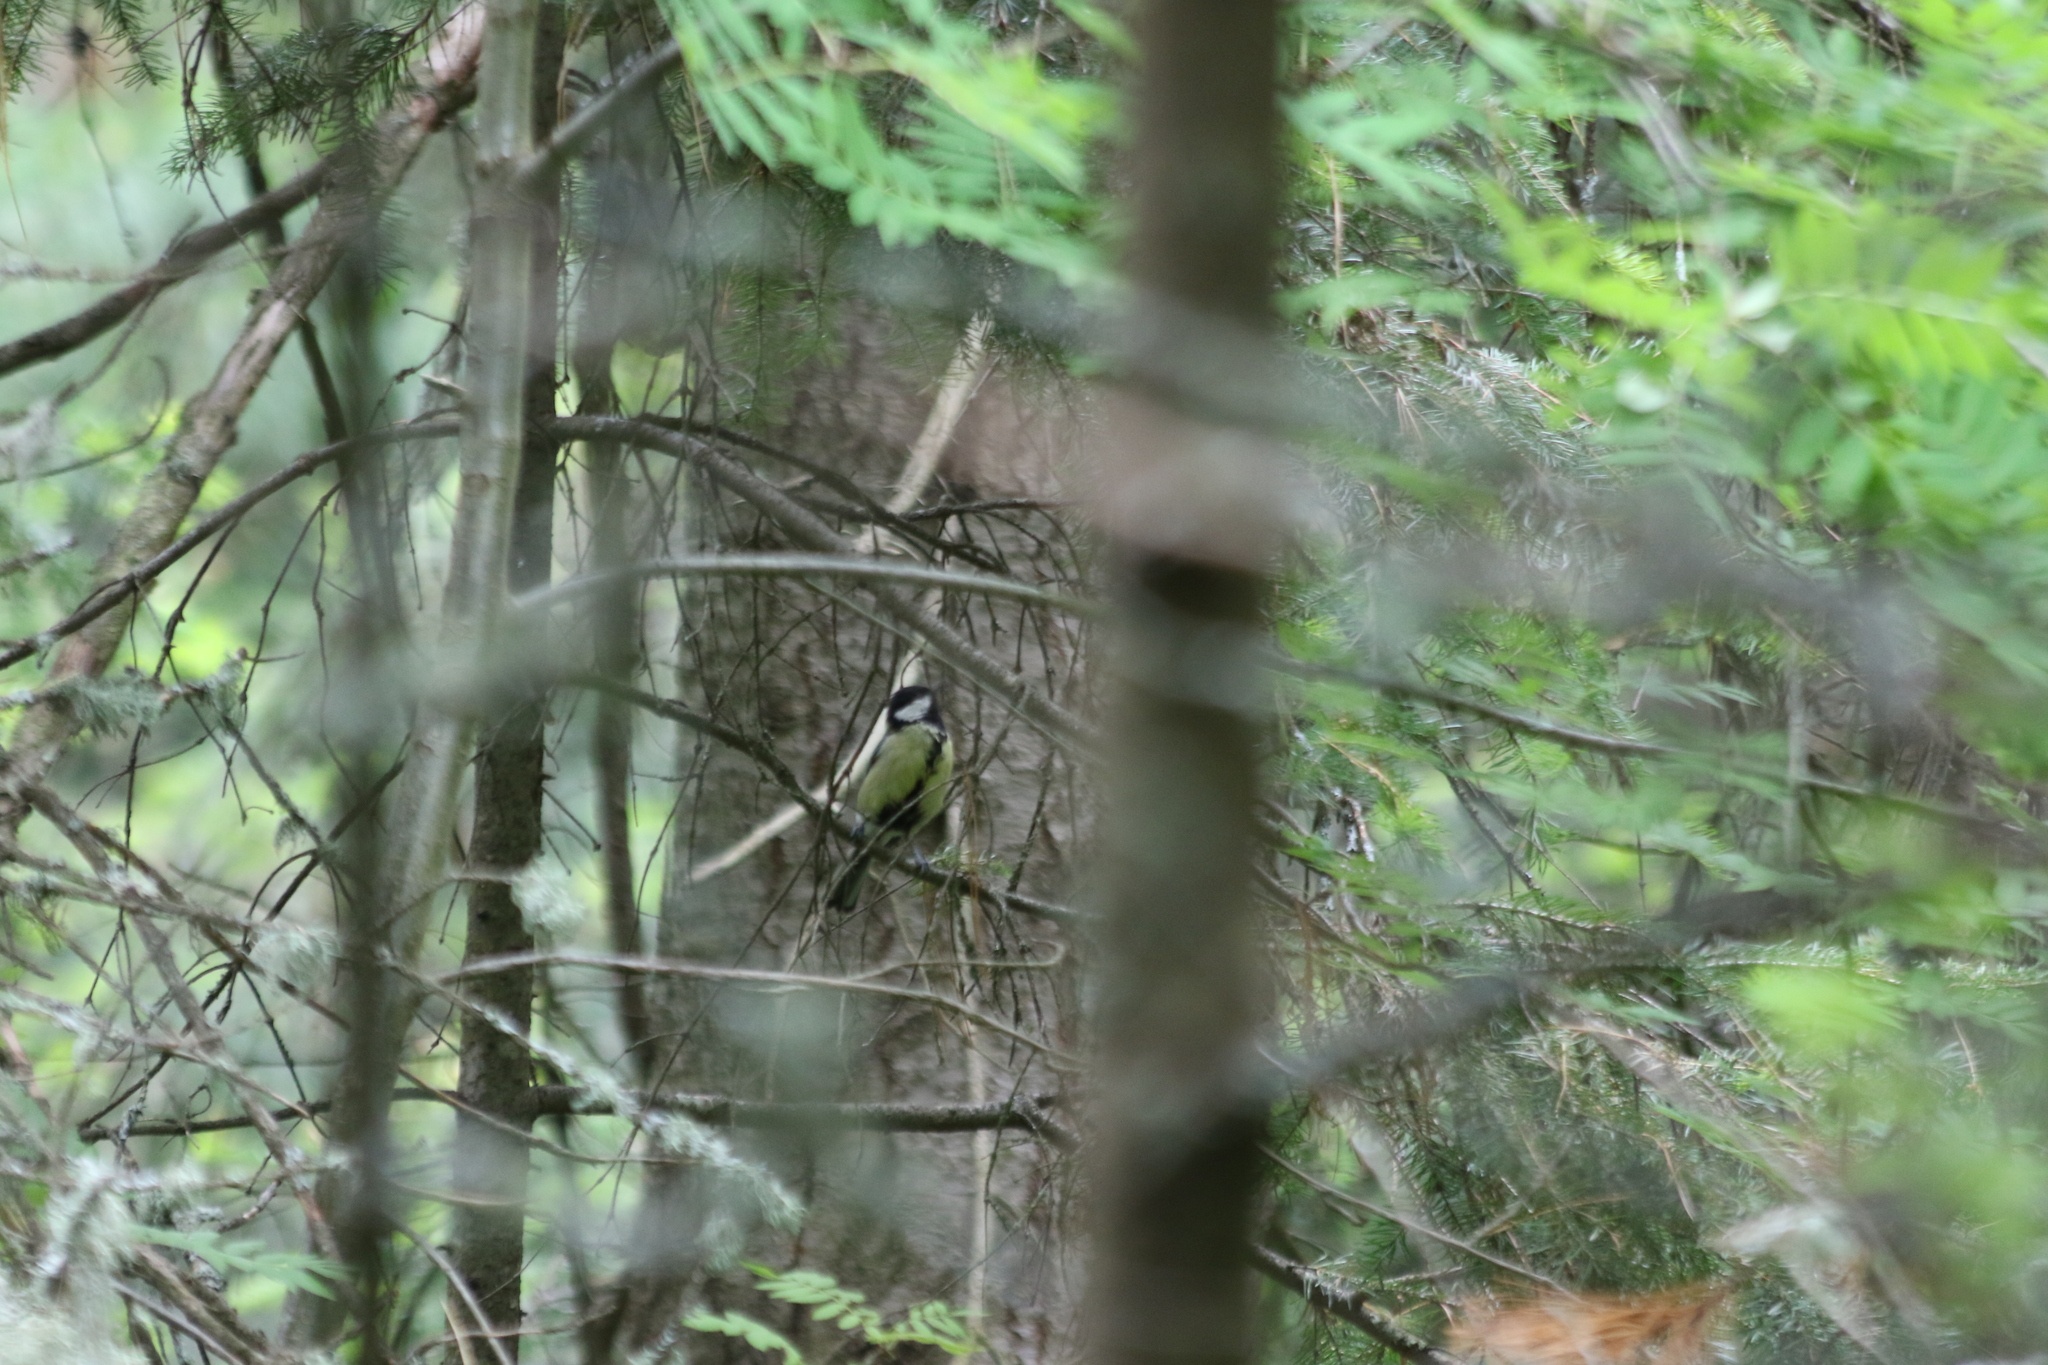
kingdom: Animalia
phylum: Chordata
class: Aves
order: Passeriformes
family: Paridae
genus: Parus
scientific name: Parus major
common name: Great tit
